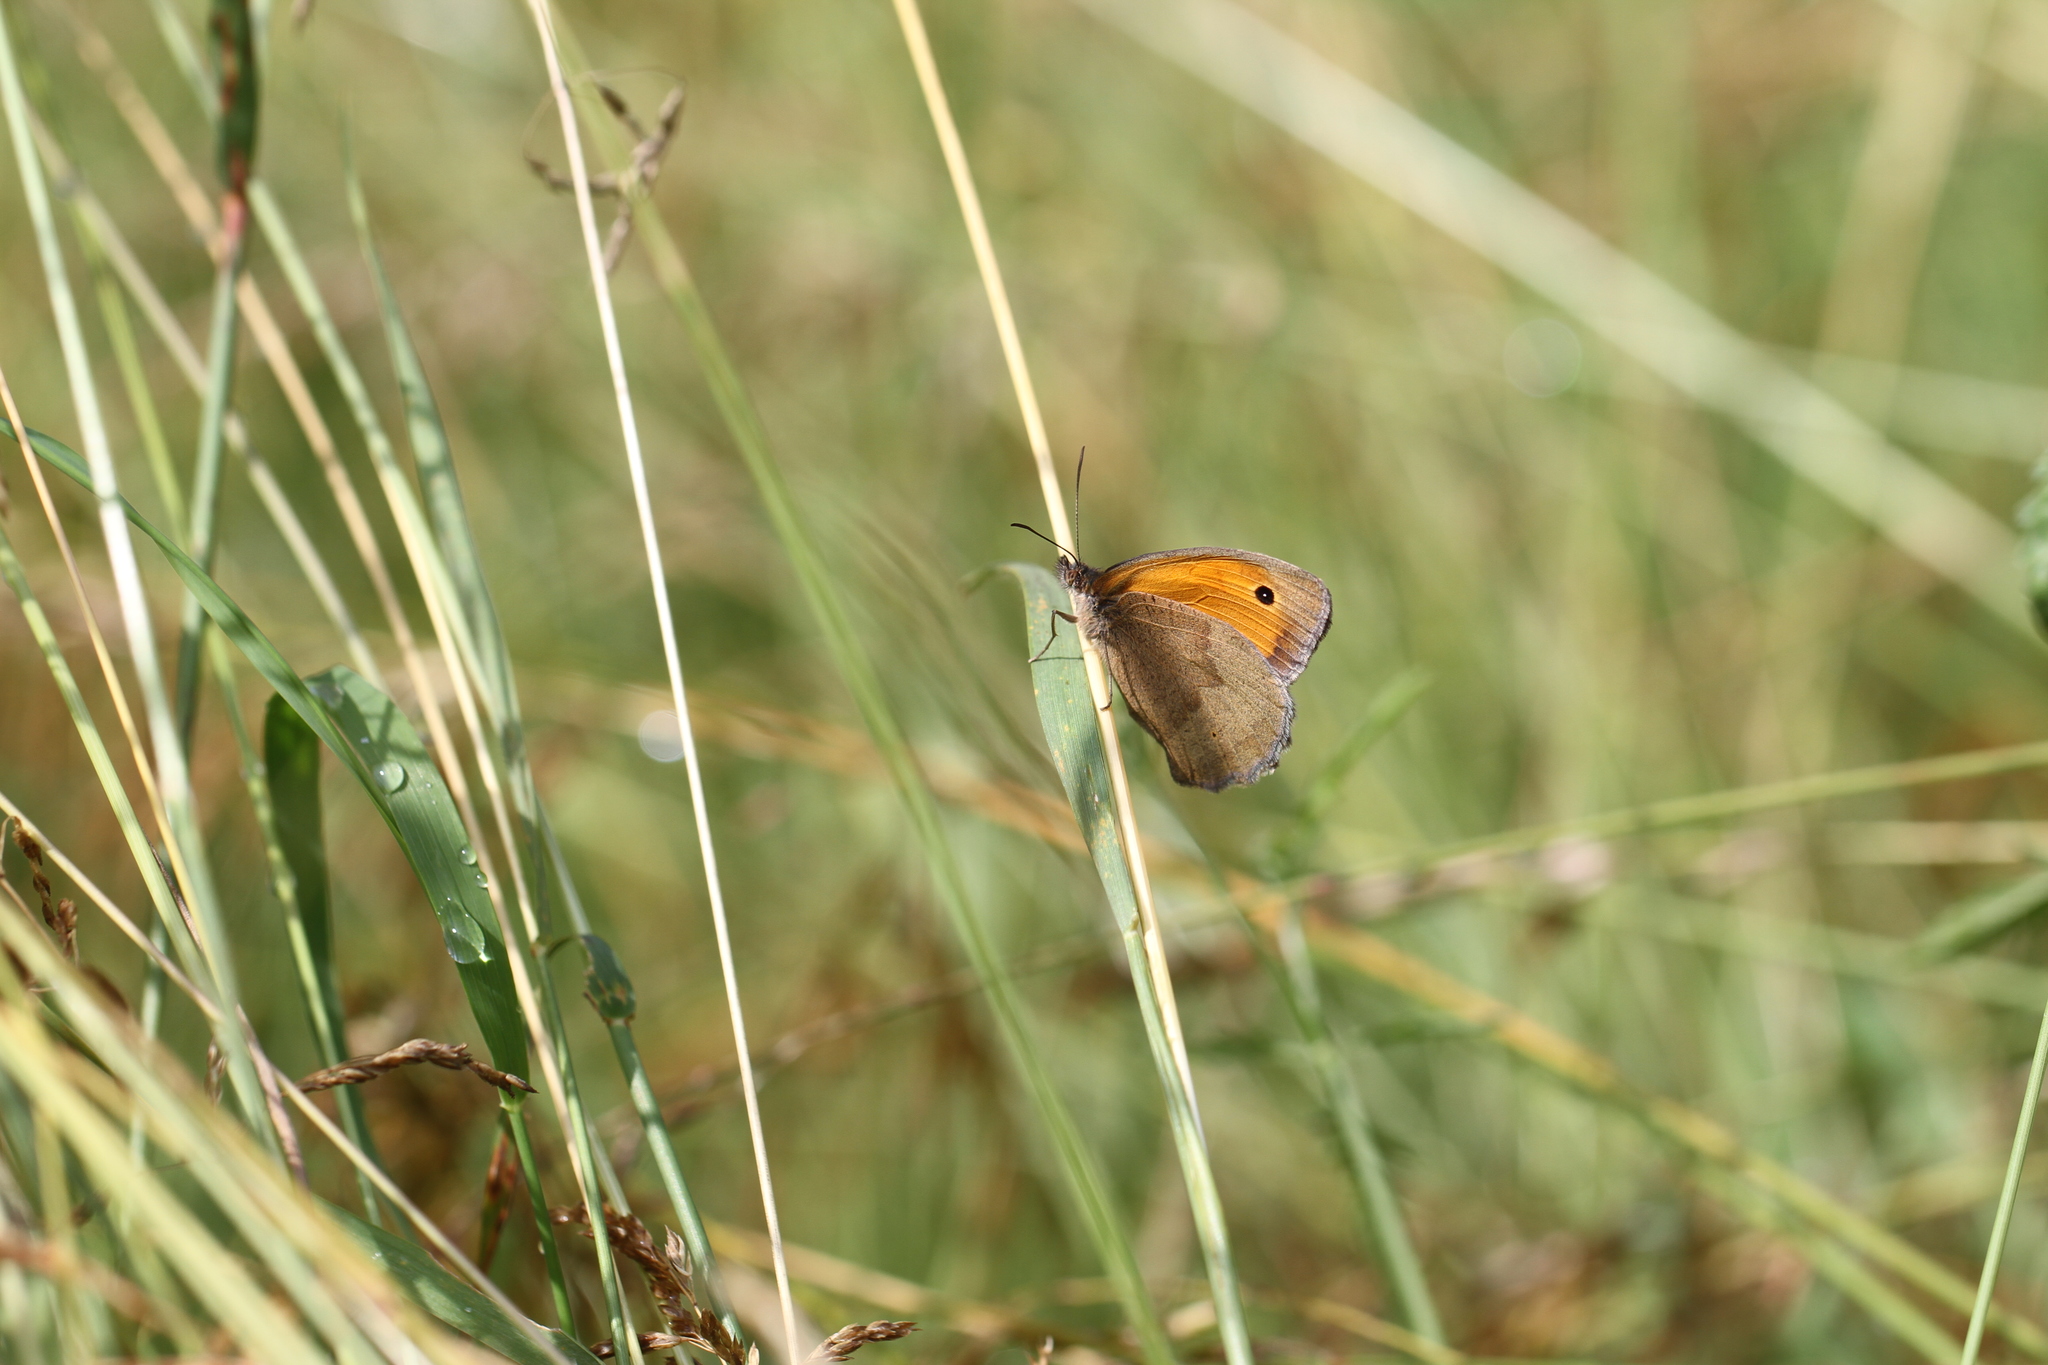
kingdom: Animalia
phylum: Arthropoda
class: Insecta
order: Lepidoptera
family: Nymphalidae
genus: Maniola
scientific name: Maniola jurtina
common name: Meadow brown
